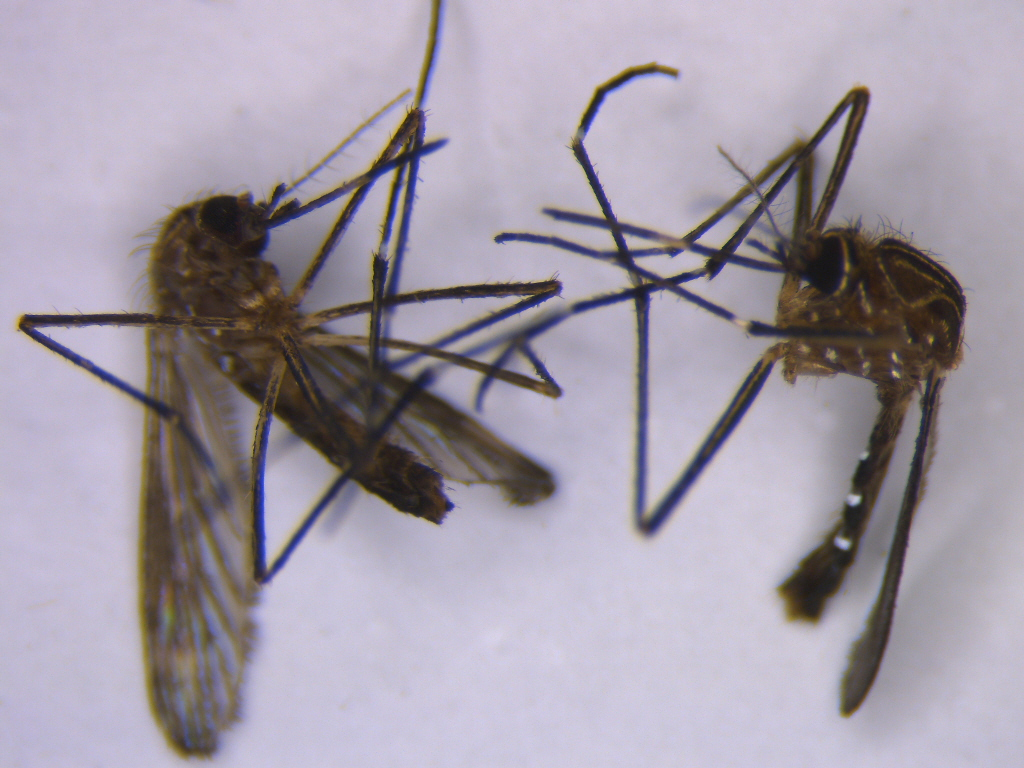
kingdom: Animalia
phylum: Arthropoda
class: Insecta
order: Diptera
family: Culicidae
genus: Aedes
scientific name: Aedes notoscriptus
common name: Australian backyard mosquito
